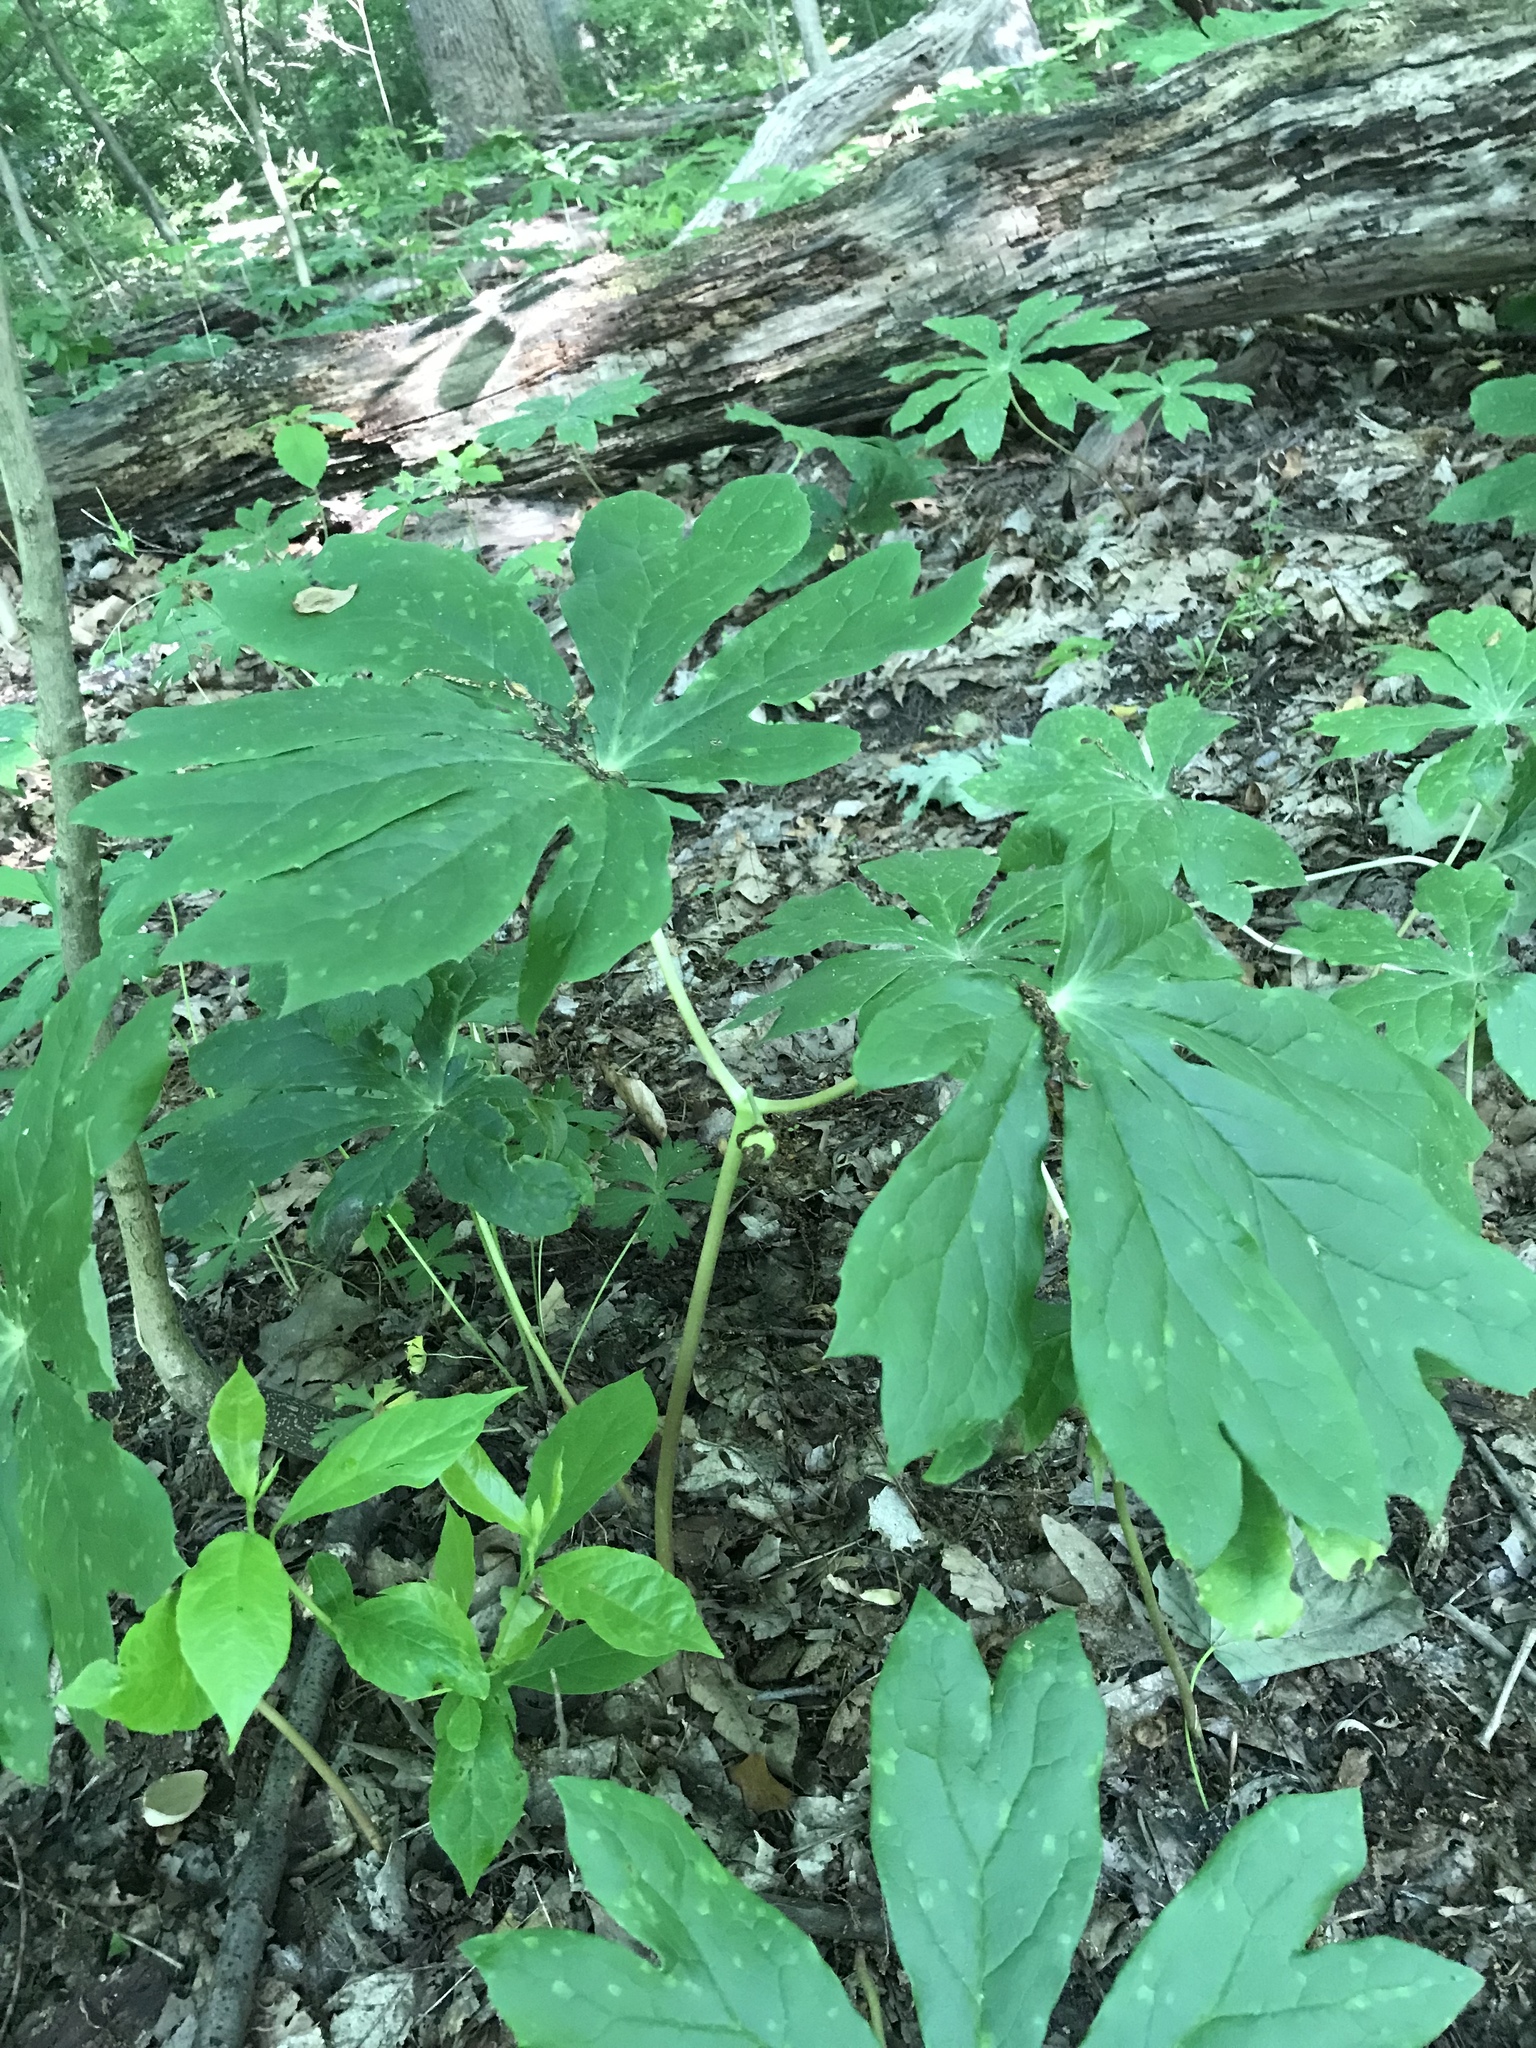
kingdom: Plantae
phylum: Tracheophyta
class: Magnoliopsida
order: Ranunculales
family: Berberidaceae
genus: Podophyllum
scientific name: Podophyllum peltatum
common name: Wild mandrake
